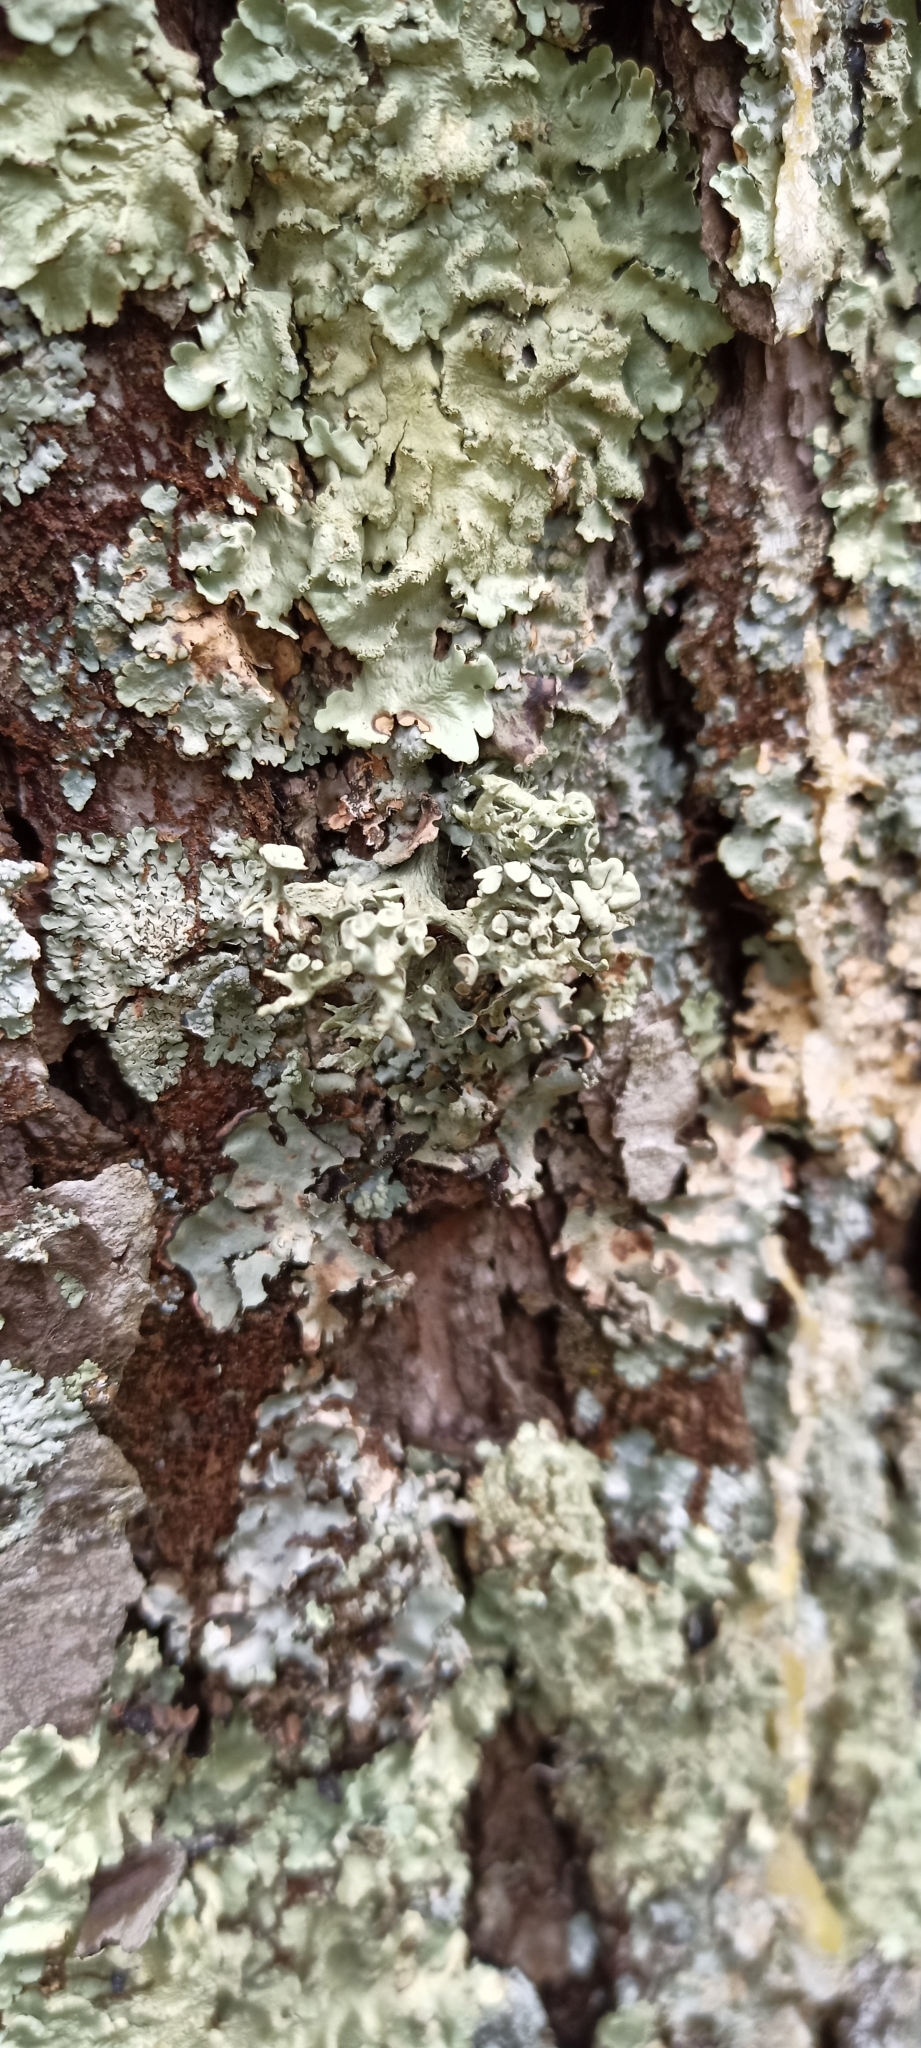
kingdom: Fungi
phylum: Ascomycota
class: Lecanoromycetes
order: Lecanorales
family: Ramalinaceae
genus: Ramalina
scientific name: Ramalina fastigiata
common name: Dotted ribbon lichen
